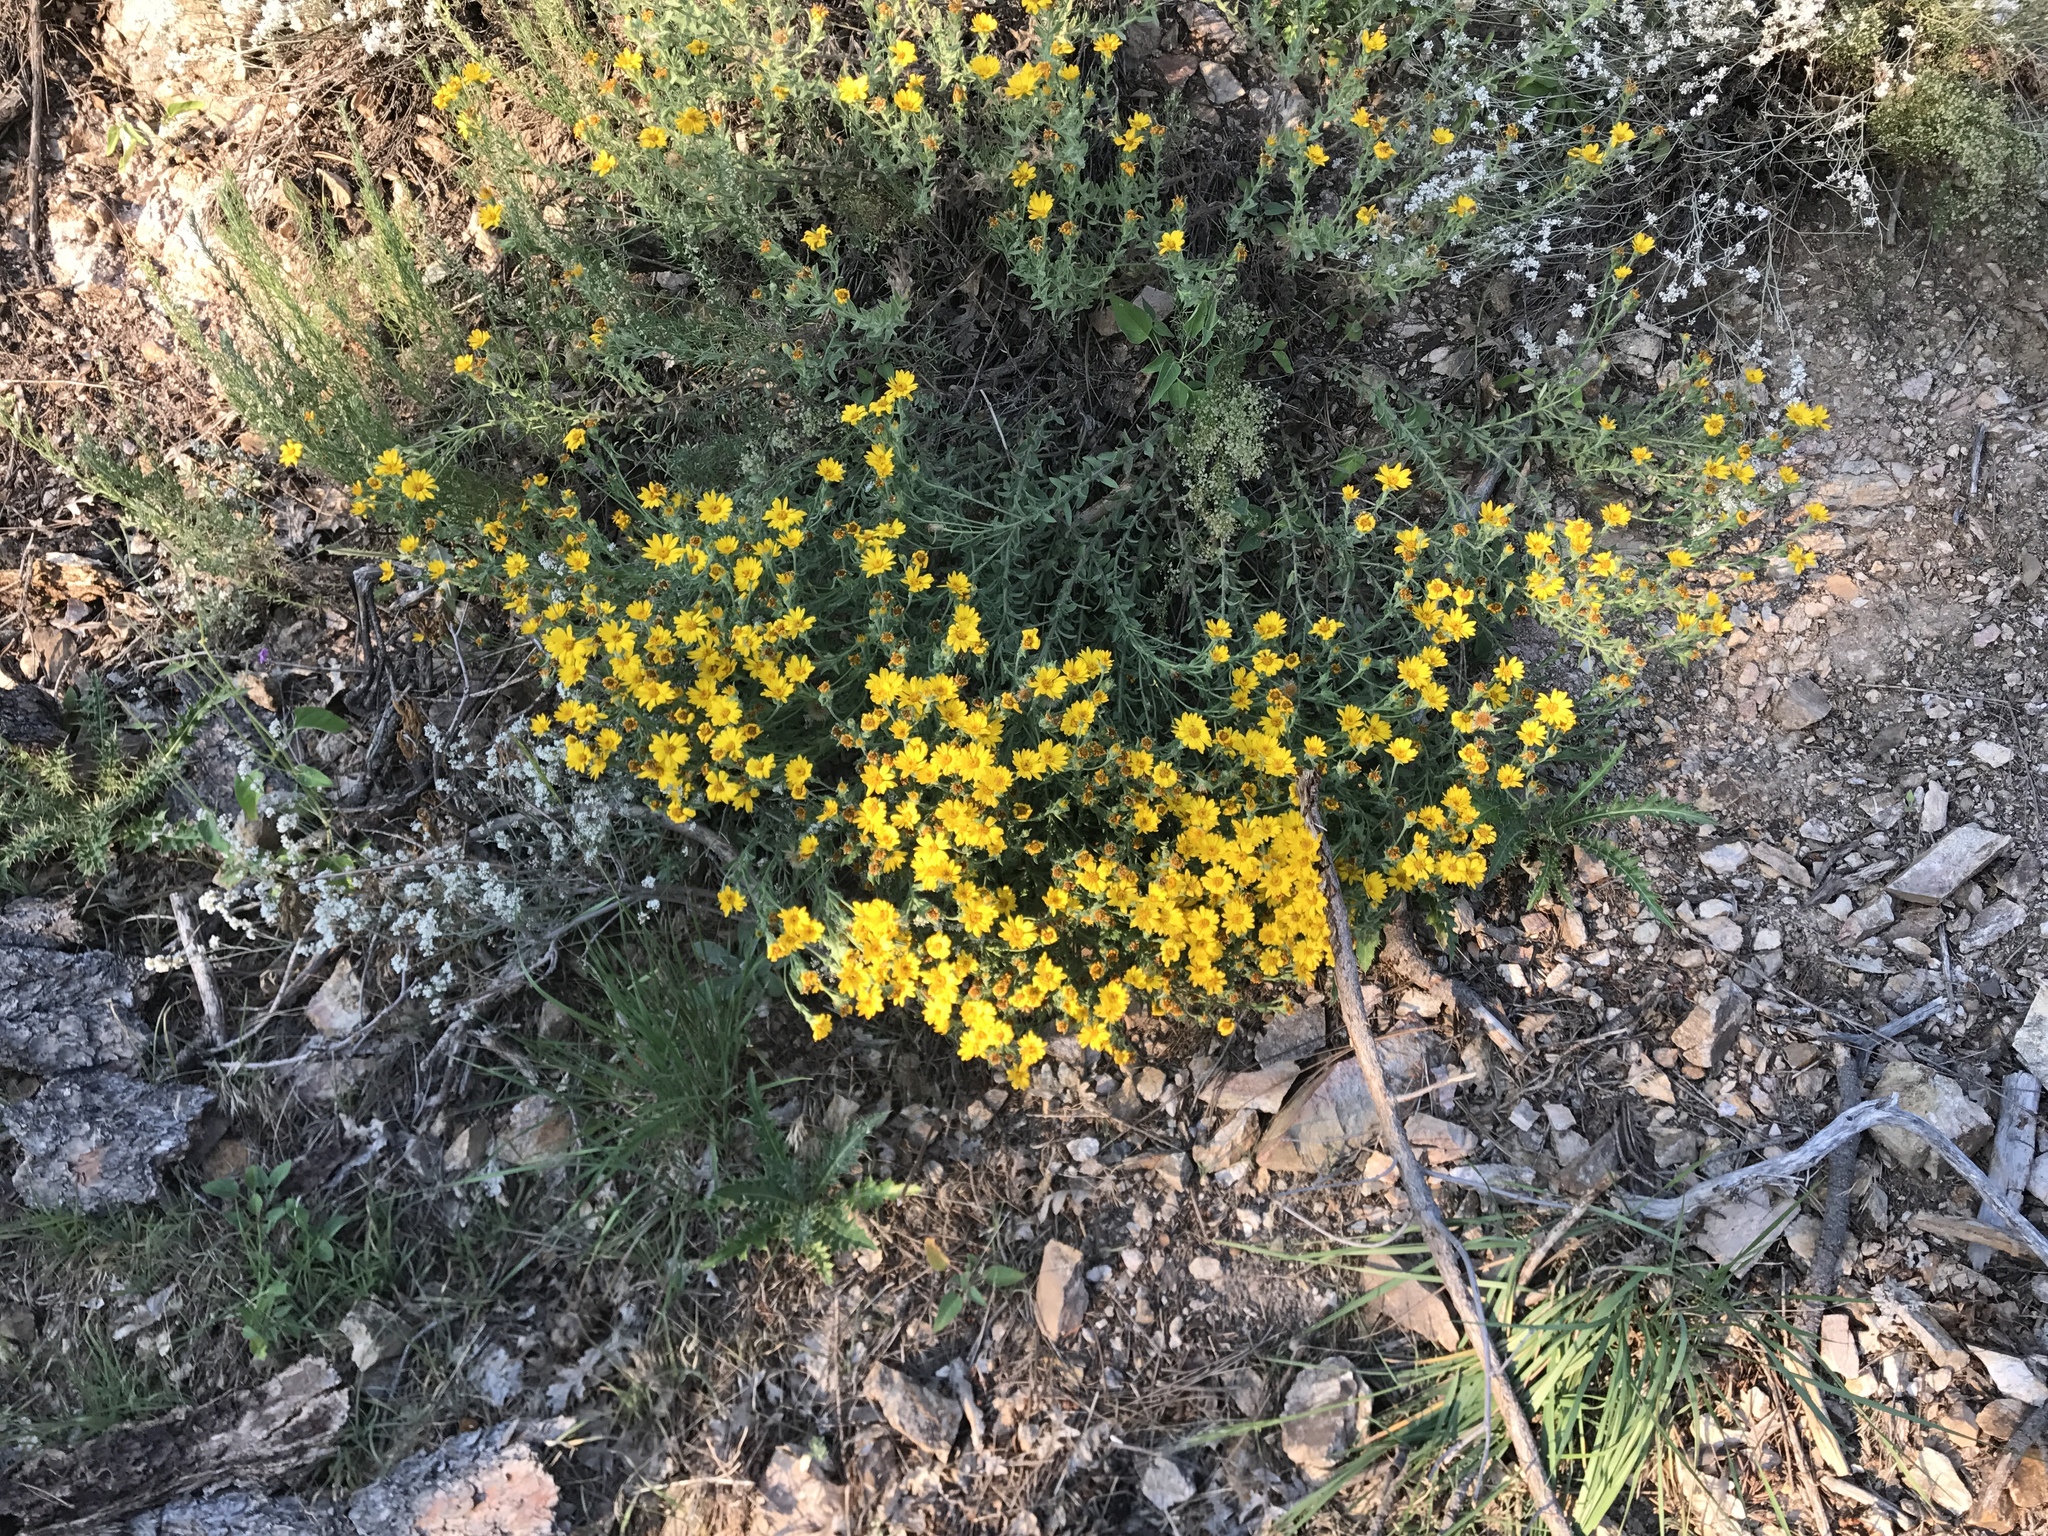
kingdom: Plantae
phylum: Tracheophyta
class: Magnoliopsida
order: Asterales
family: Asteraceae
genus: Thymophylla
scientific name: Thymophylla pentachaeta
